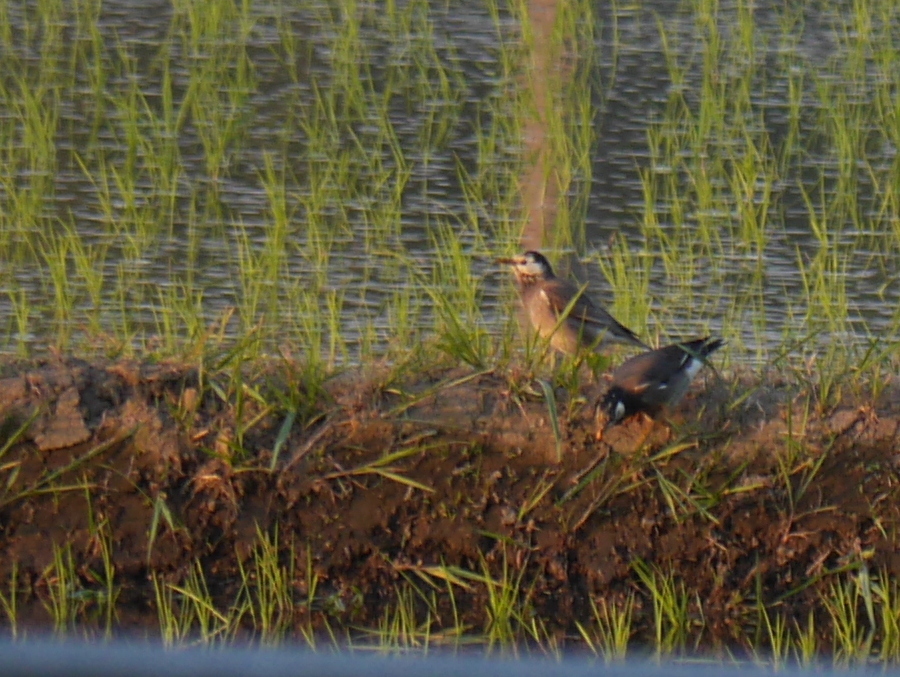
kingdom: Animalia
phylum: Chordata
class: Aves
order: Passeriformes
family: Sturnidae
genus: Spodiopsar
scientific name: Spodiopsar cineraceus
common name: White-cheeked starling
